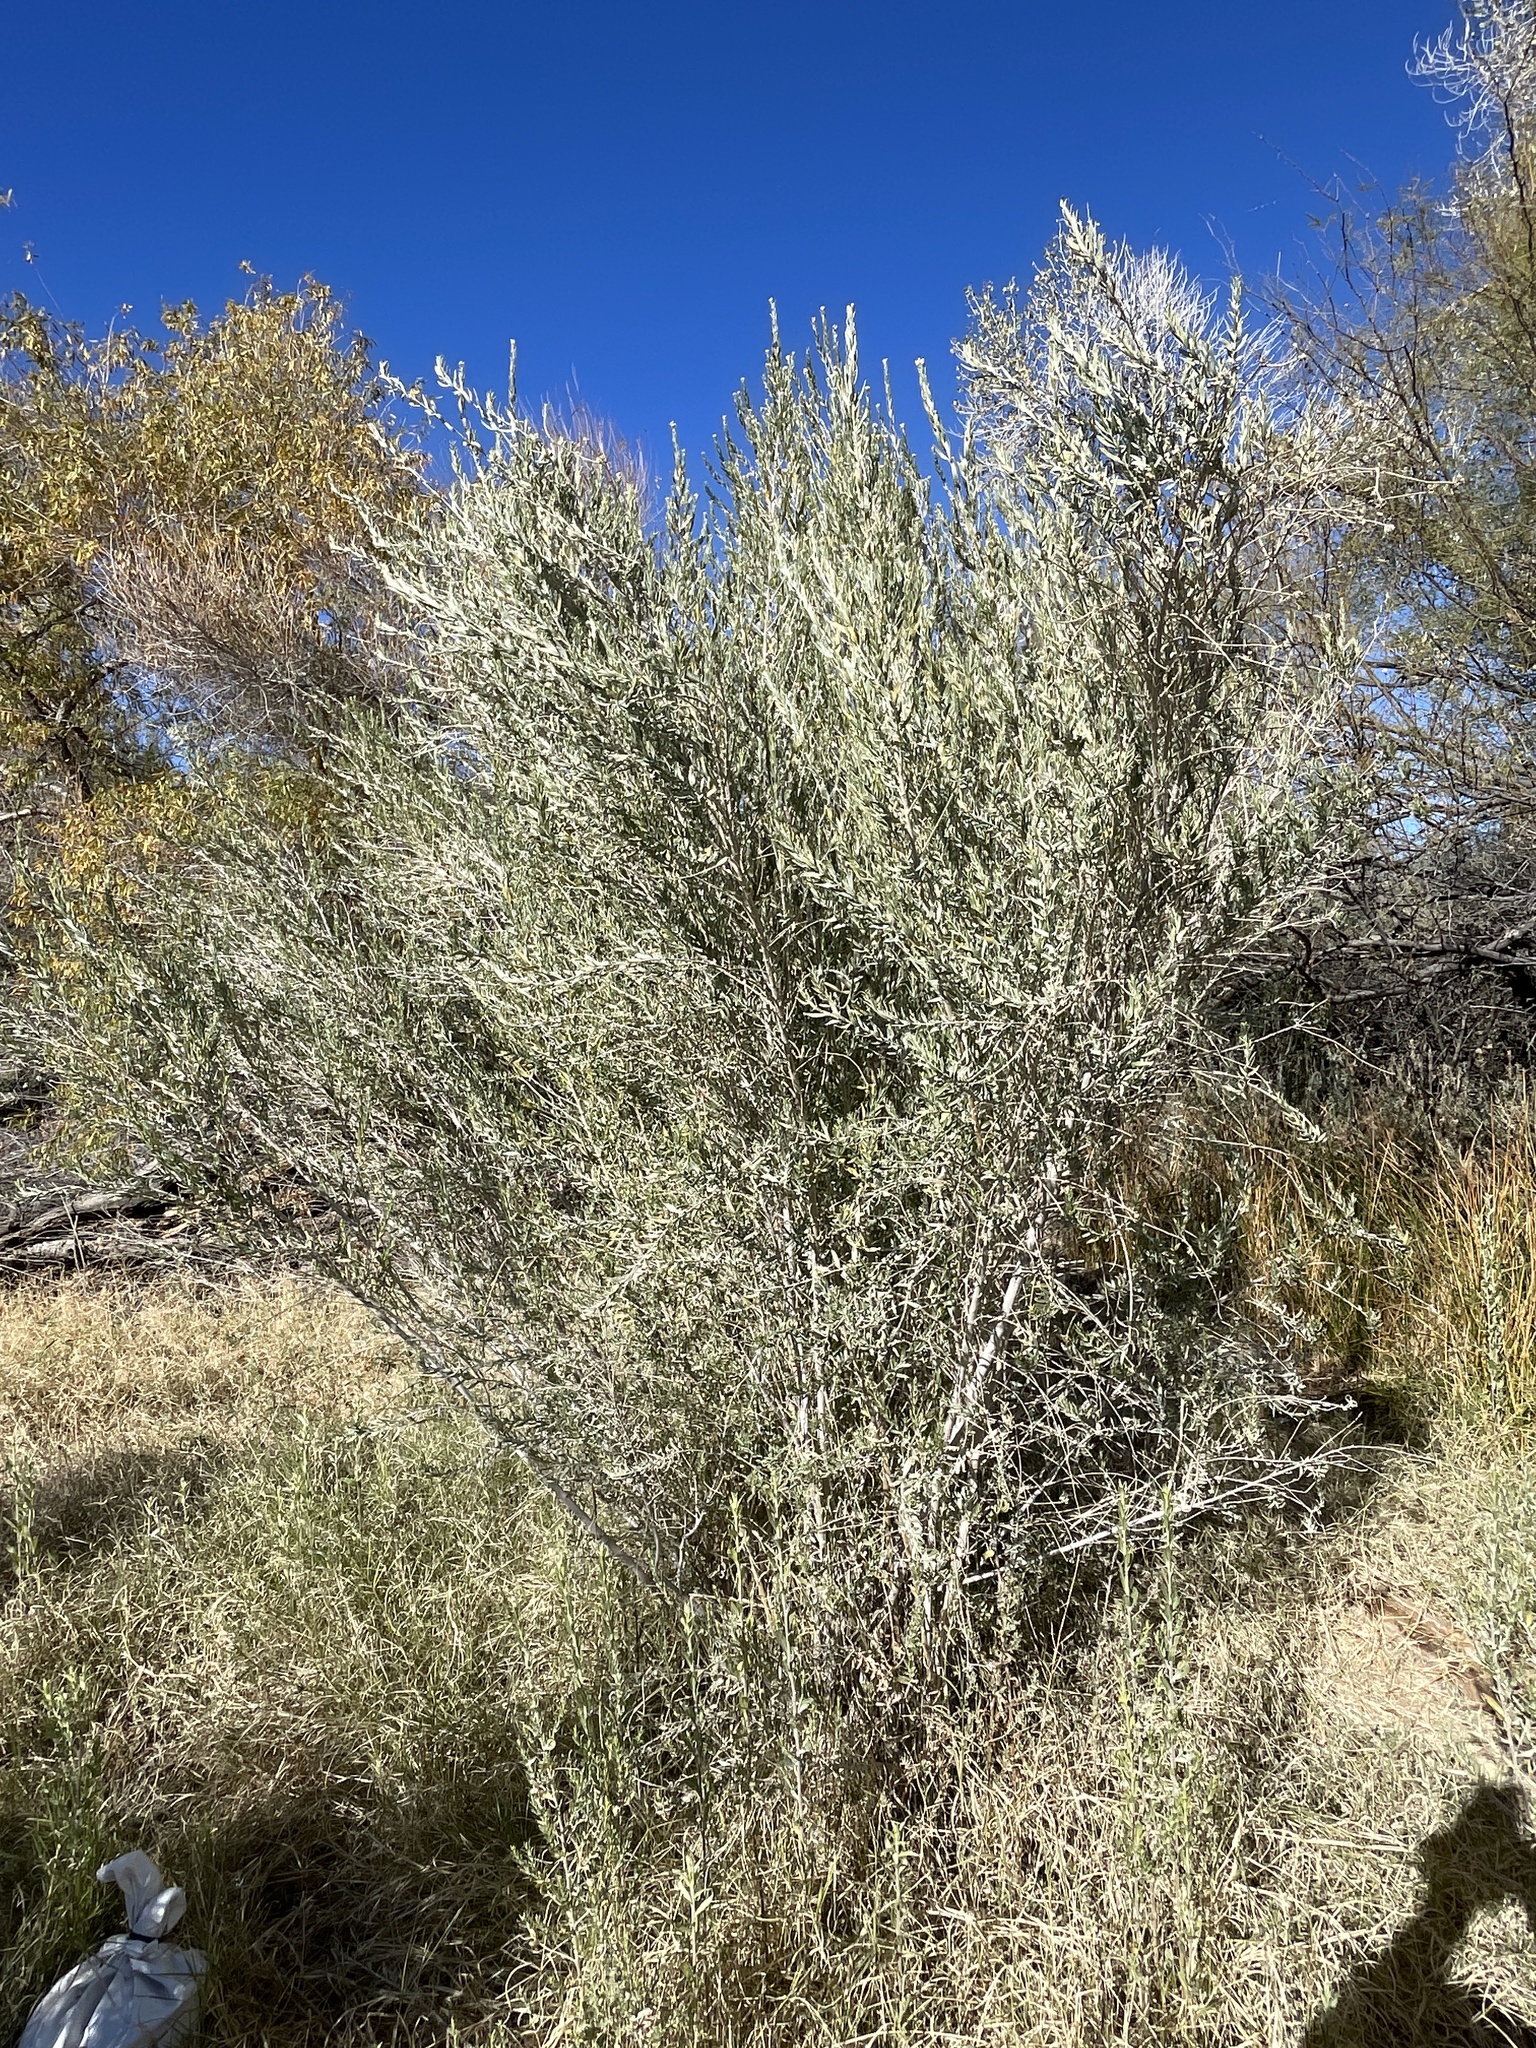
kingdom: Plantae
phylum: Tracheophyta
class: Magnoliopsida
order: Asterales
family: Asteraceae
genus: Pluchea
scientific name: Pluchea sericea
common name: Arrow-weed
